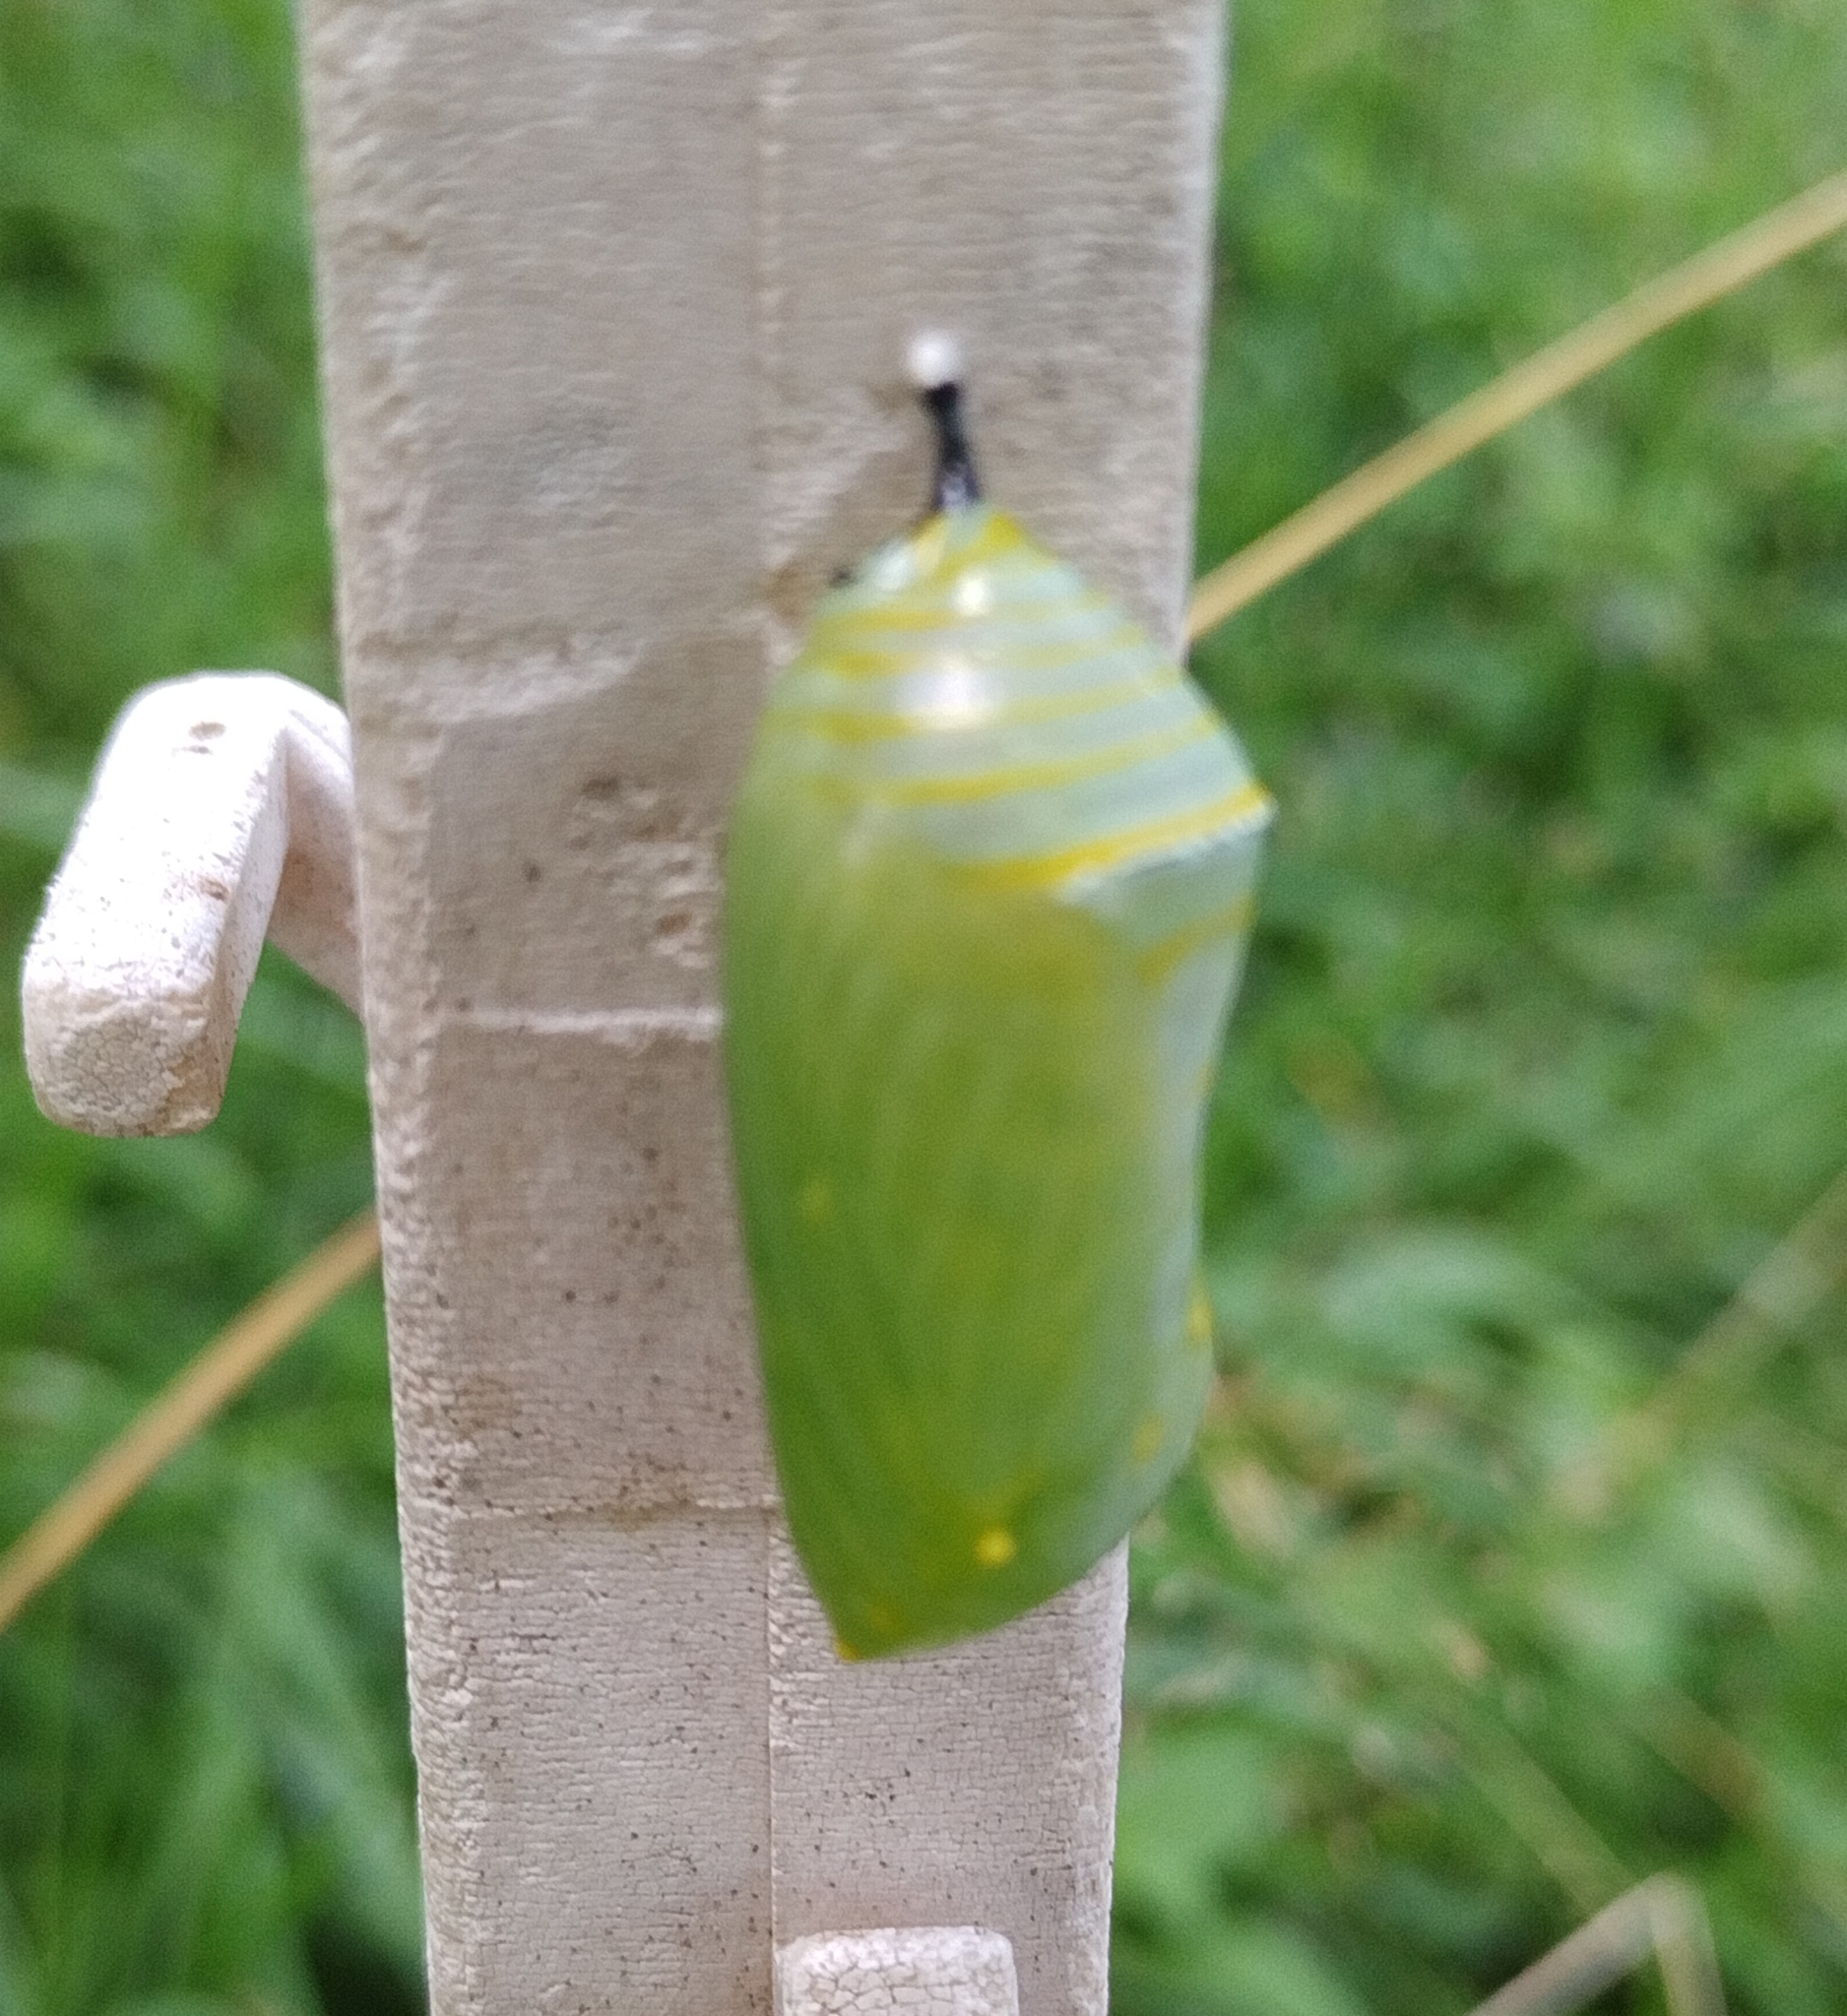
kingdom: Animalia
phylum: Arthropoda
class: Insecta
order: Lepidoptera
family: Nymphalidae
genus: Danaus
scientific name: Danaus plexippus
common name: Monarch
